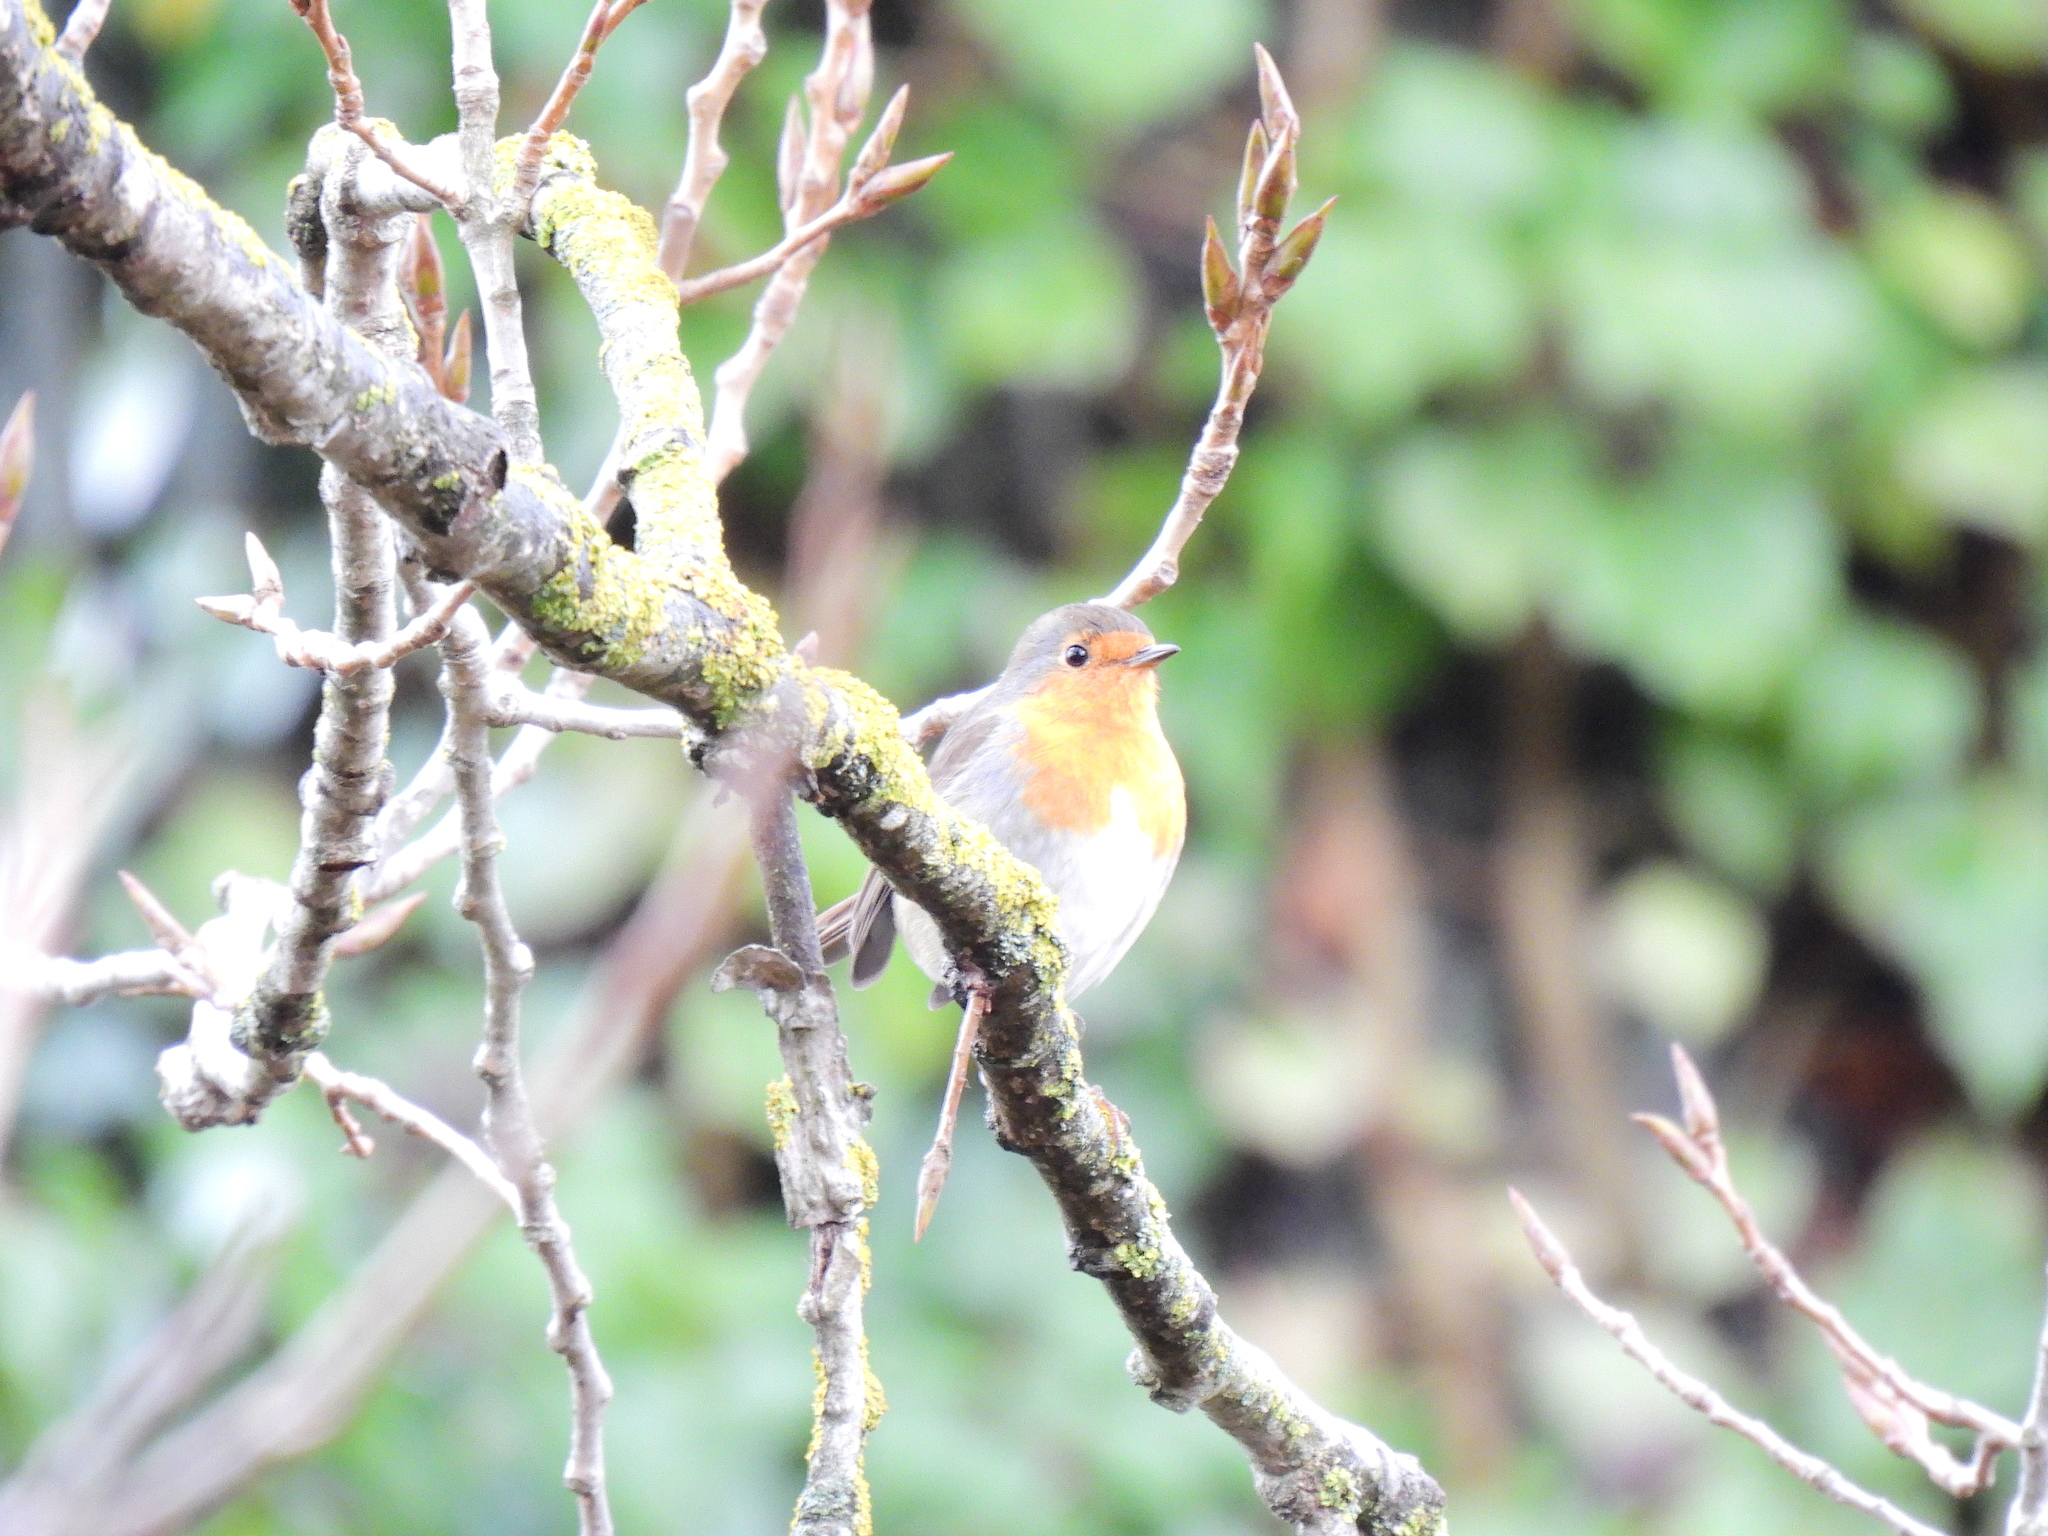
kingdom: Animalia
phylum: Chordata
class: Aves
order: Passeriformes
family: Muscicapidae
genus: Erithacus
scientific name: Erithacus rubecula
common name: European robin
